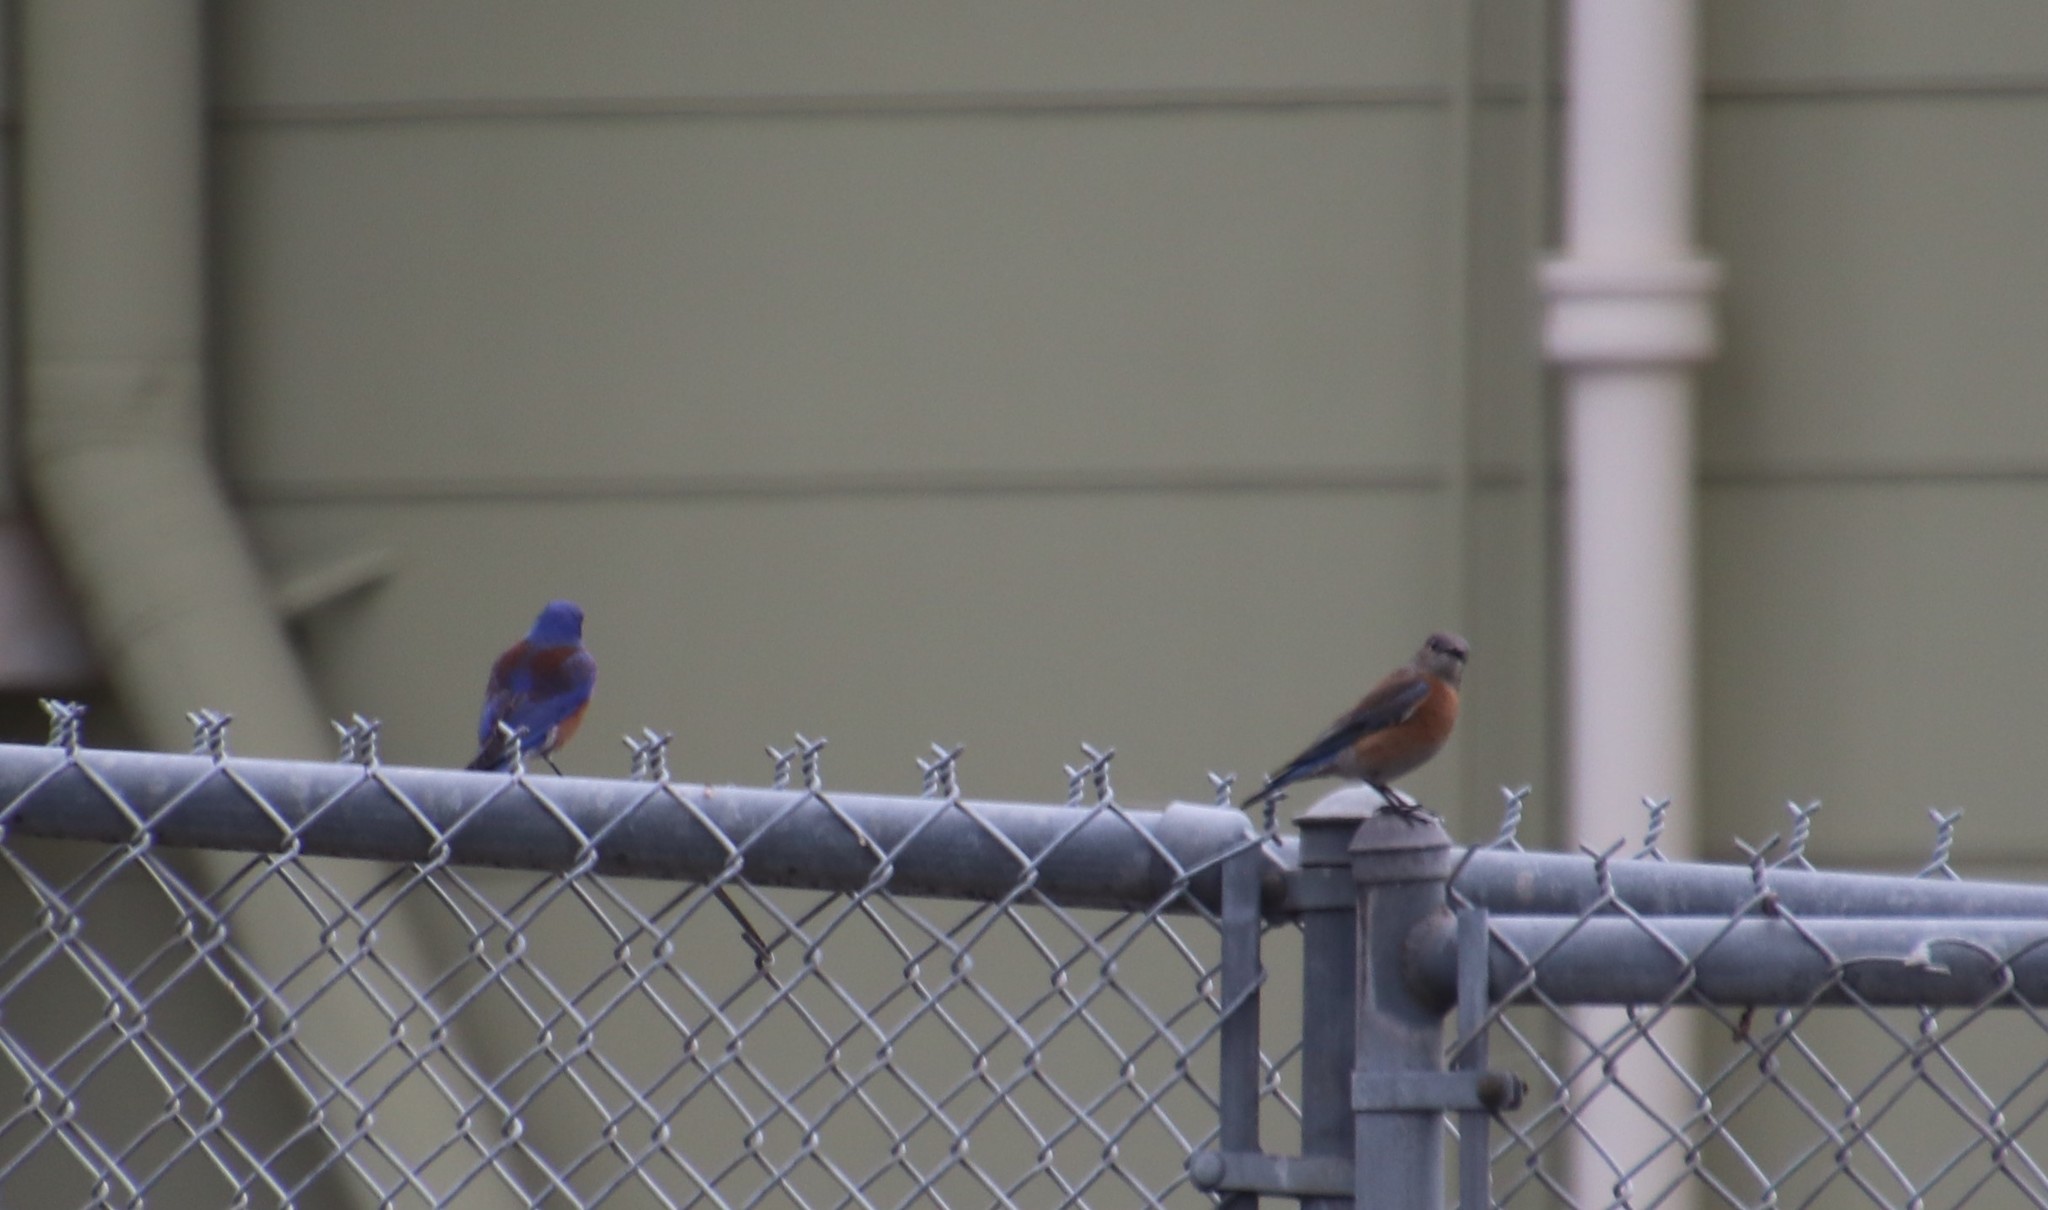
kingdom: Animalia
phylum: Chordata
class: Aves
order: Passeriformes
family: Turdidae
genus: Sialia
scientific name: Sialia mexicana
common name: Western bluebird
